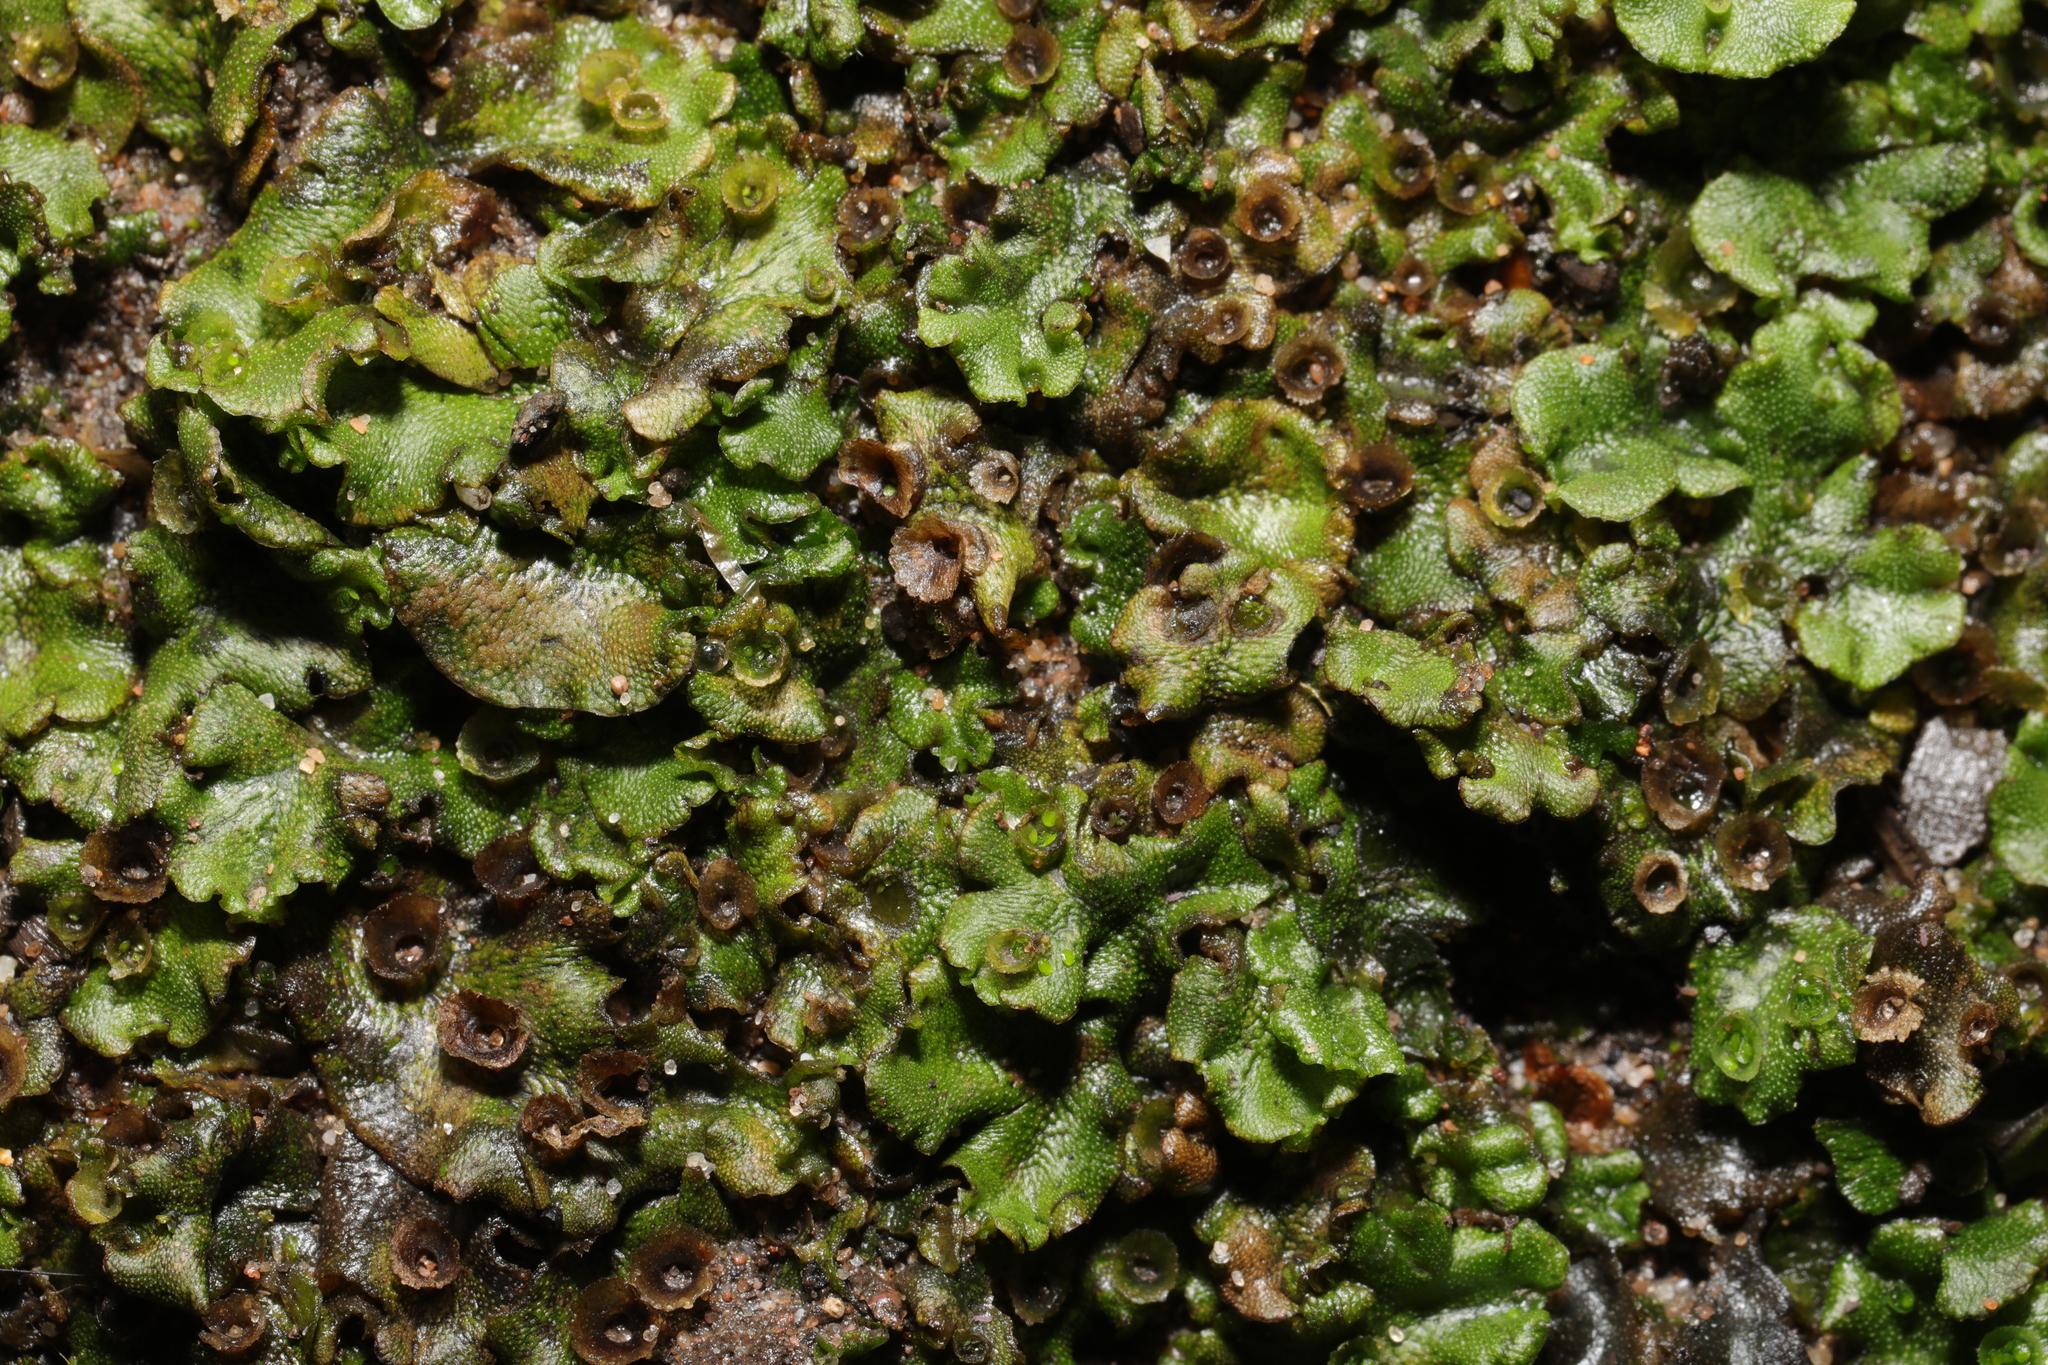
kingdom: Plantae
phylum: Marchantiophyta
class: Marchantiopsida
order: Marchantiales
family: Marchantiaceae
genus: Marchantia
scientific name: Marchantia polymorpha
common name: Common liverwort
